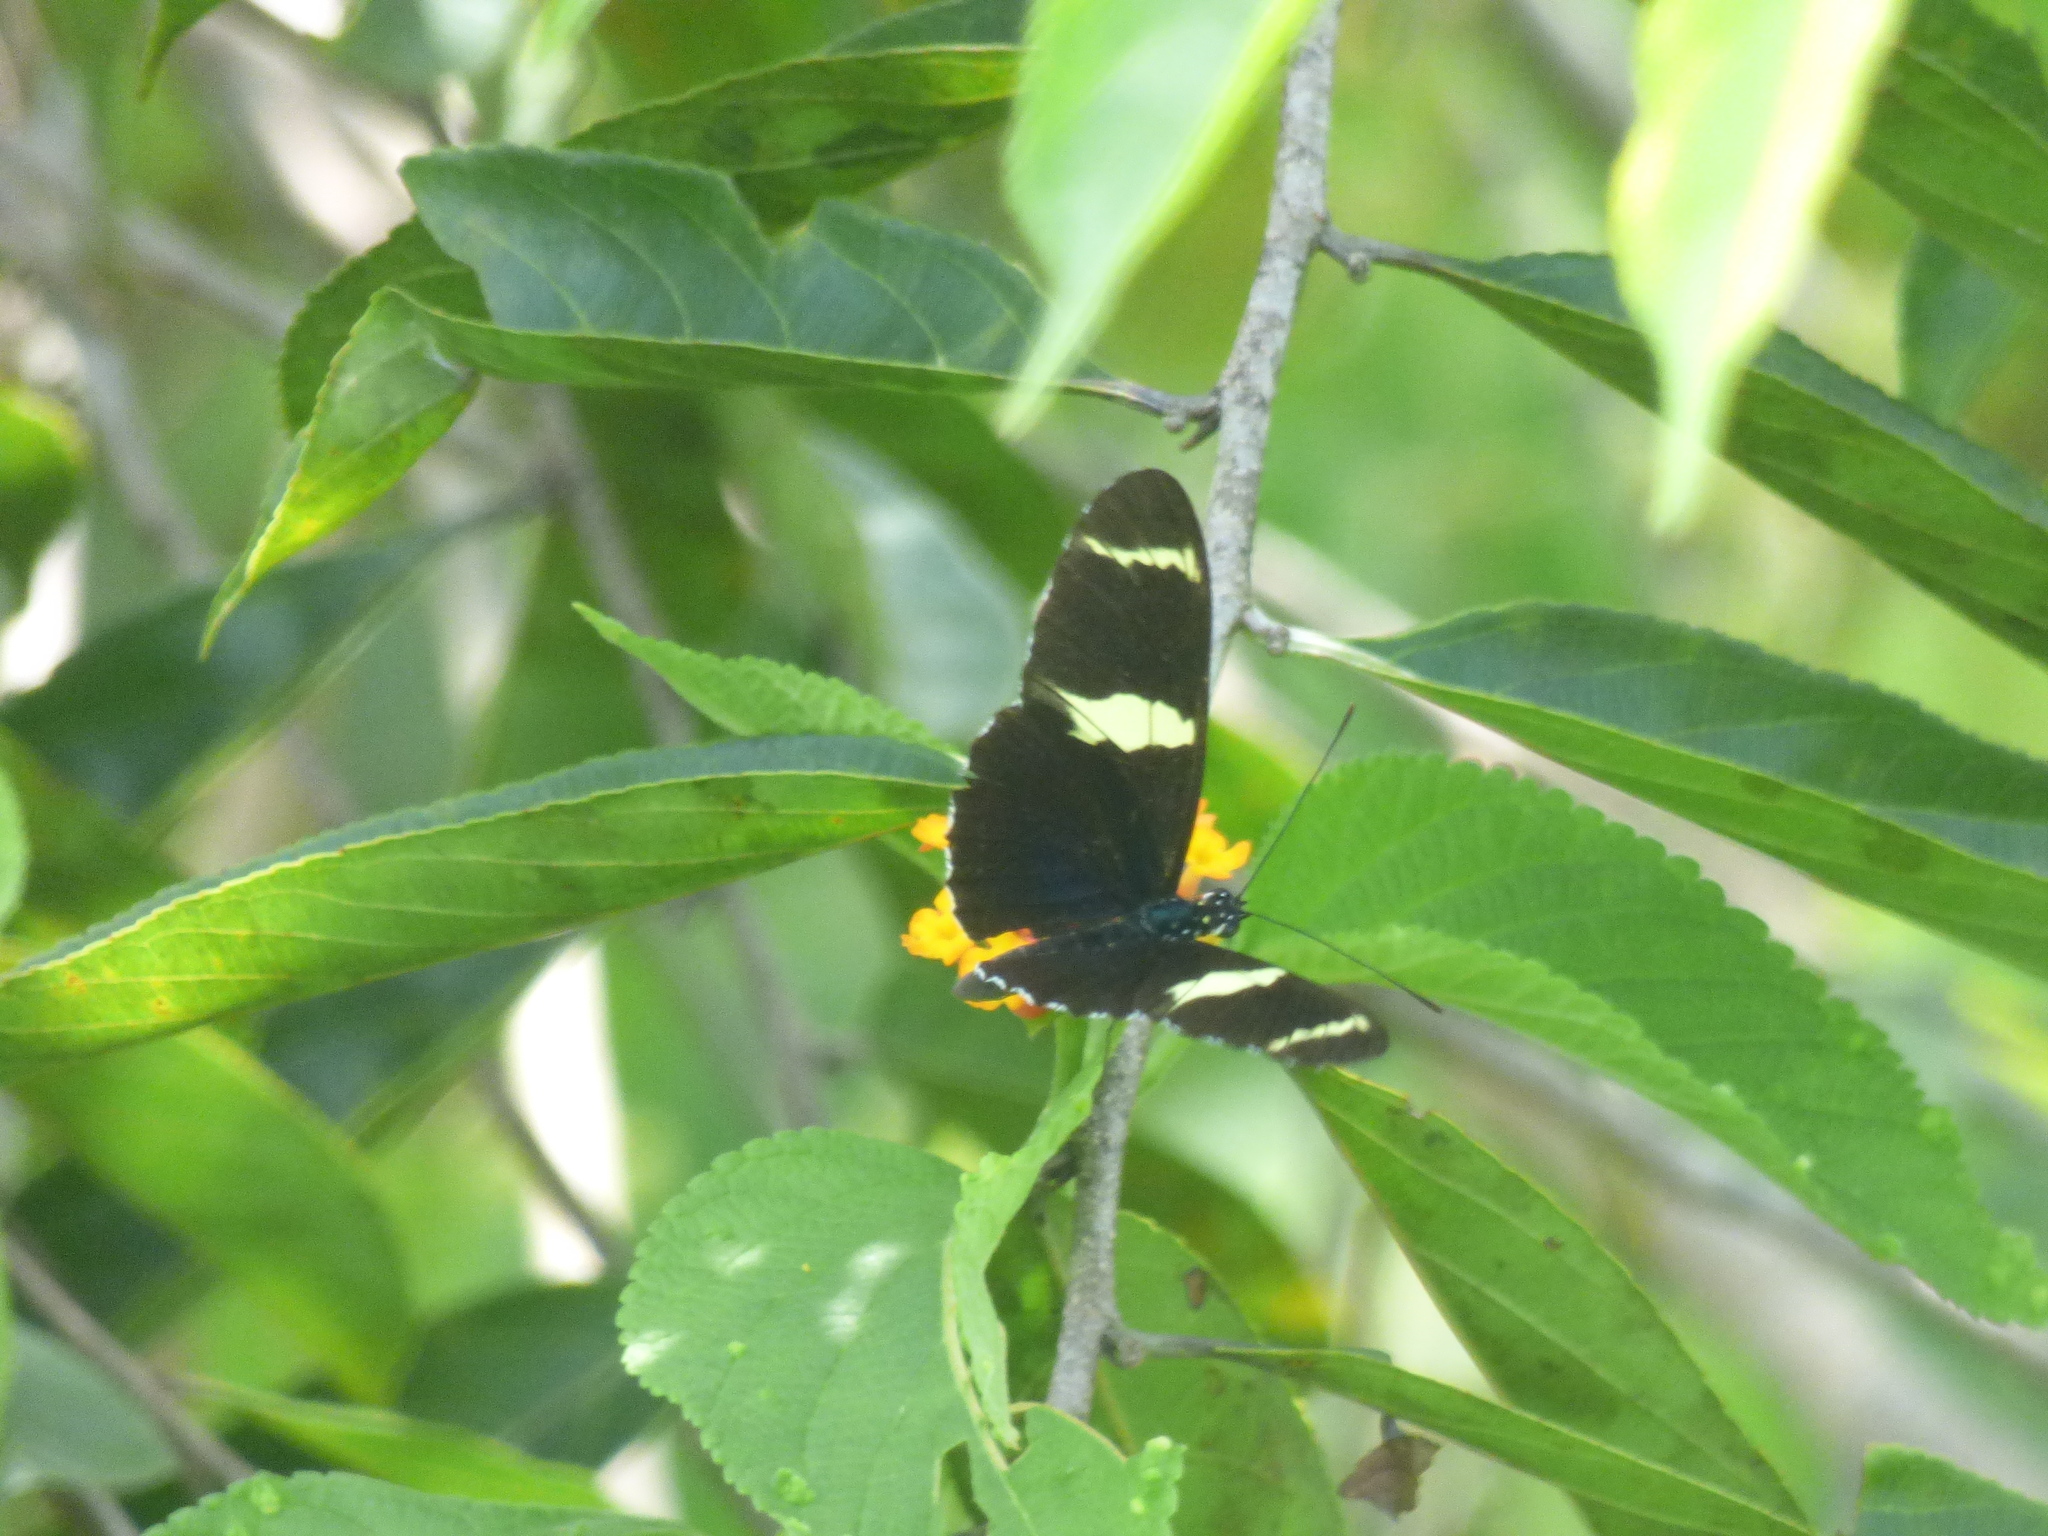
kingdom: Animalia
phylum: Arthropoda
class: Insecta
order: Lepidoptera
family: Nymphalidae
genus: Heliconius
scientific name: Heliconius sara
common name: Sara longwing
